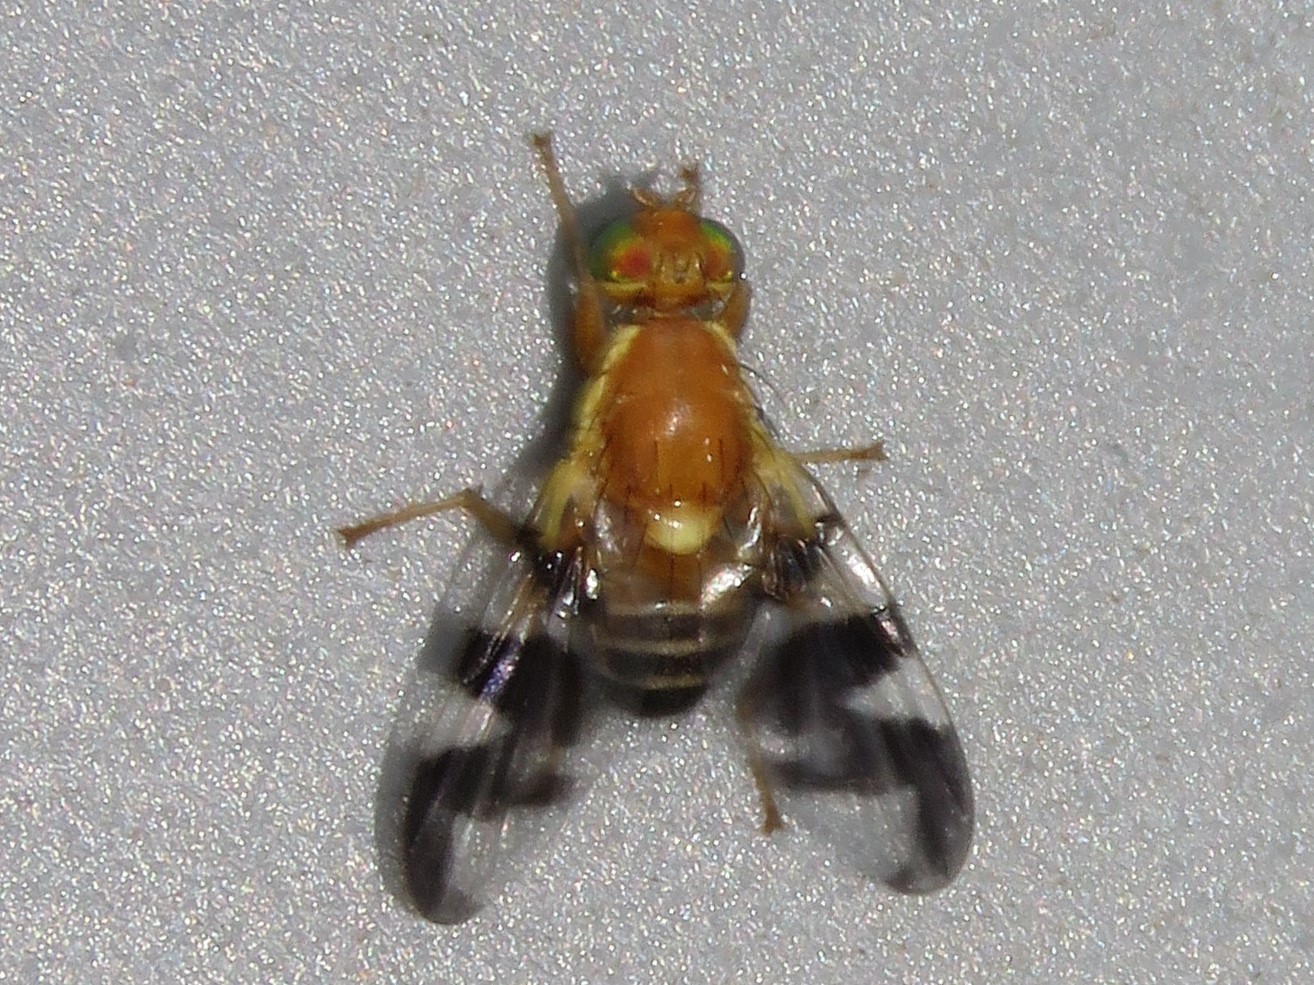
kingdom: Animalia
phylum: Arthropoda
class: Insecta
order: Diptera
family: Tephritidae
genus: Rhagoletis
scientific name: Rhagoletis suavis
